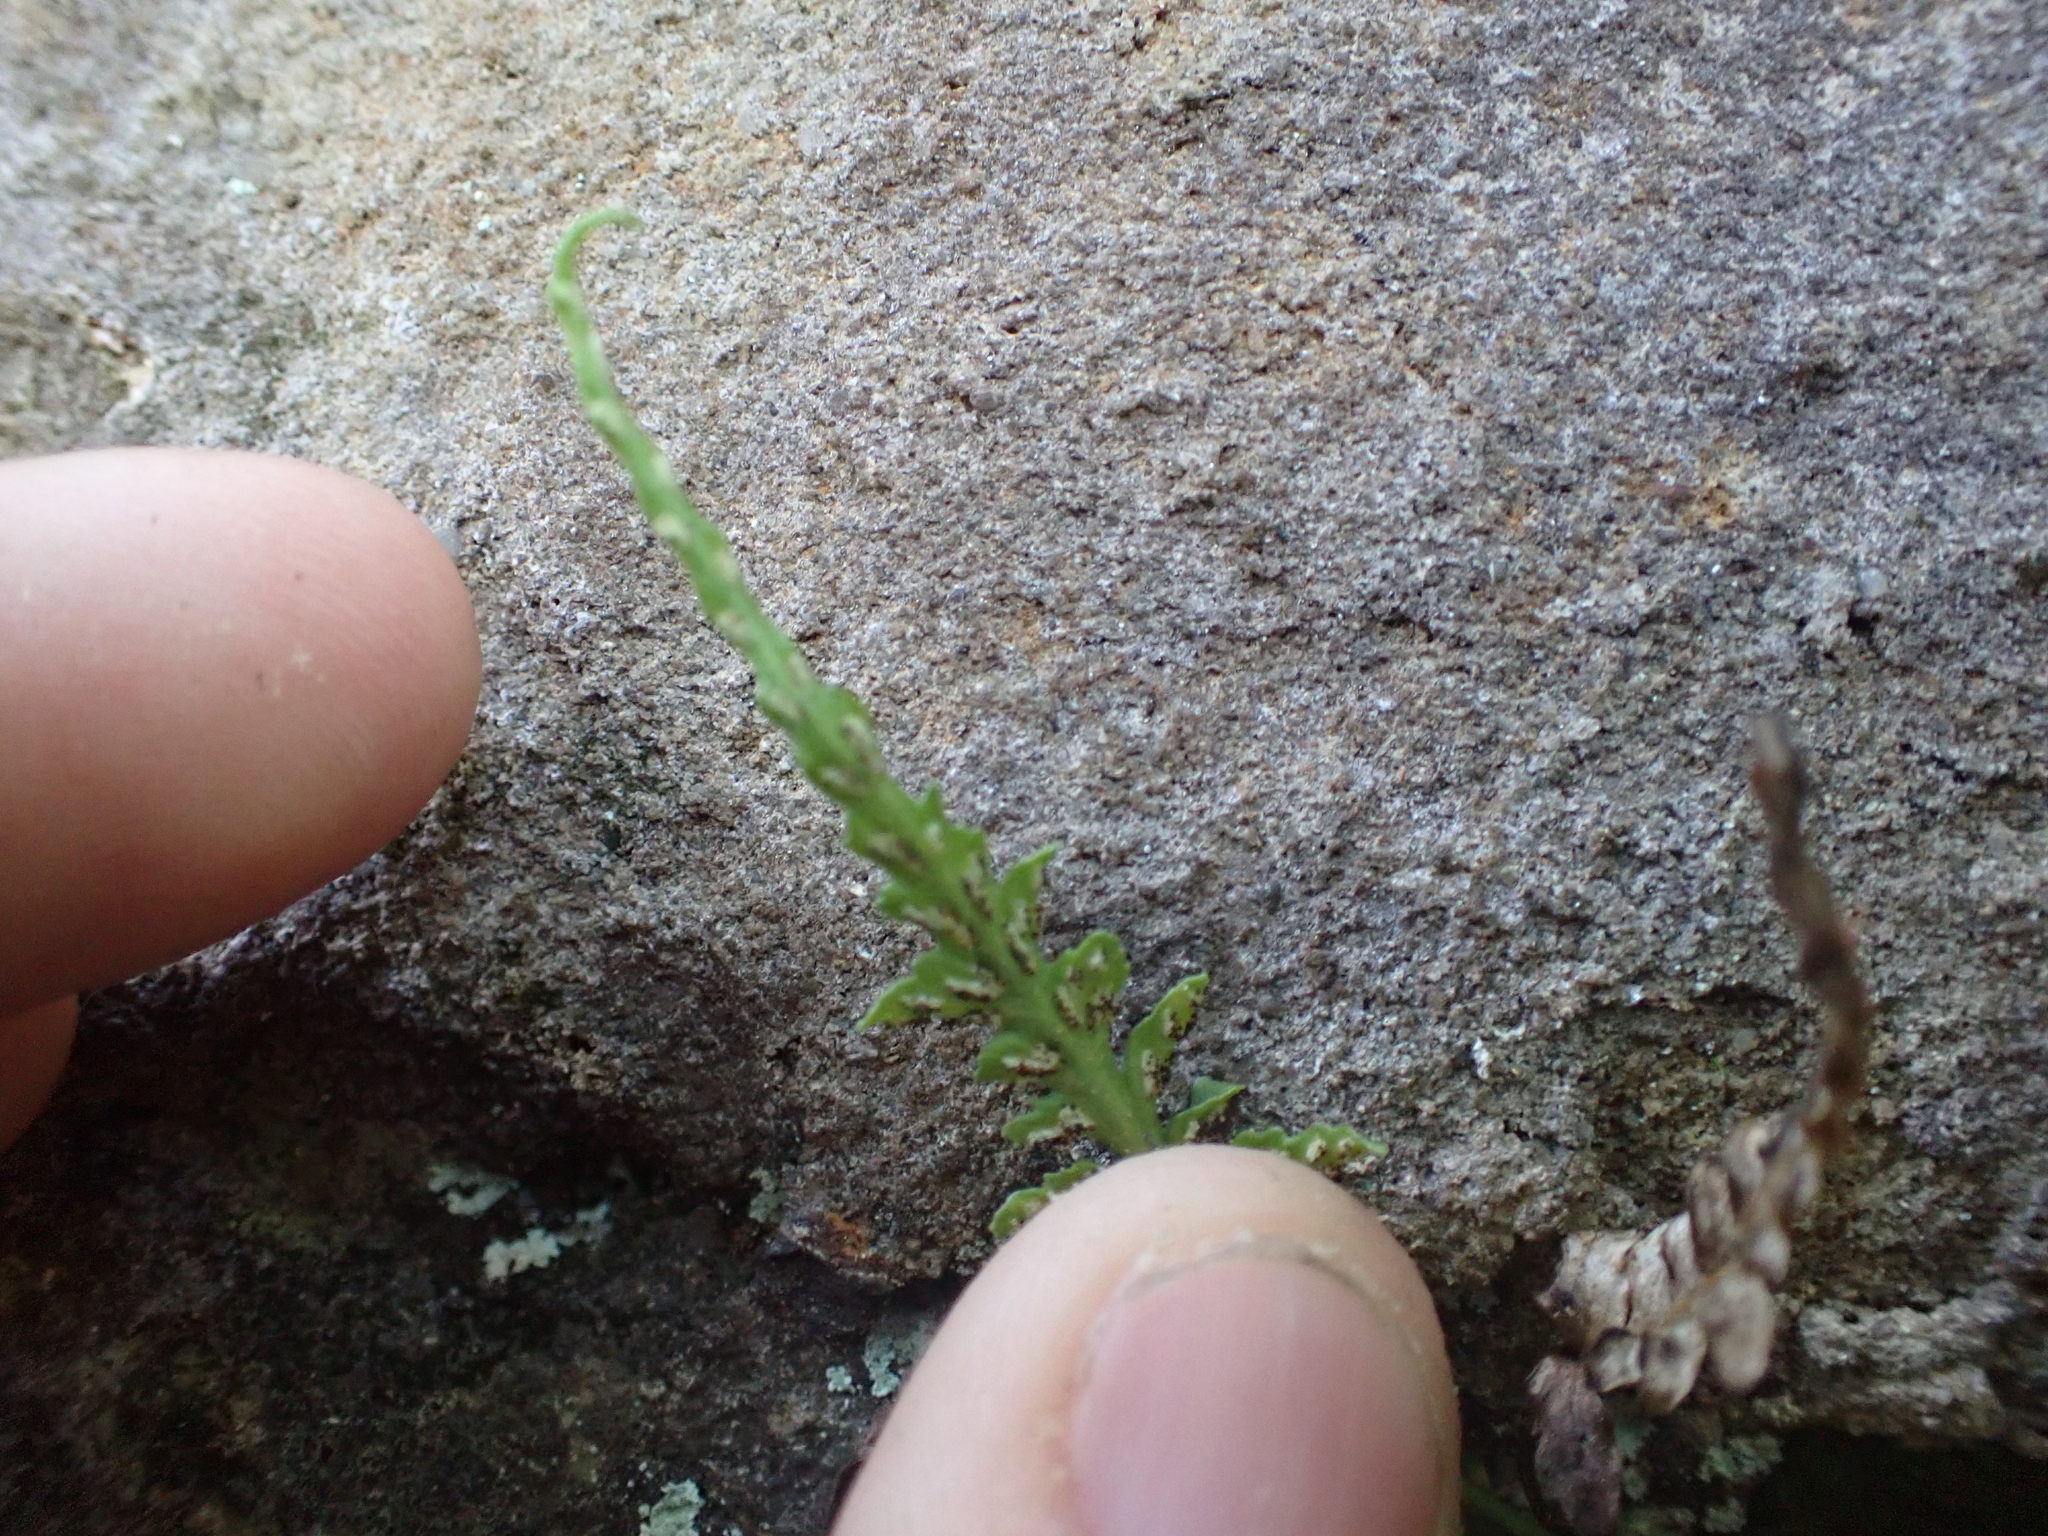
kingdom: Plantae
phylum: Tracheophyta
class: Polypodiopsida
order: Polypodiales
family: Aspleniaceae
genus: Asplenium
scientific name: Asplenium pinnatifidum
